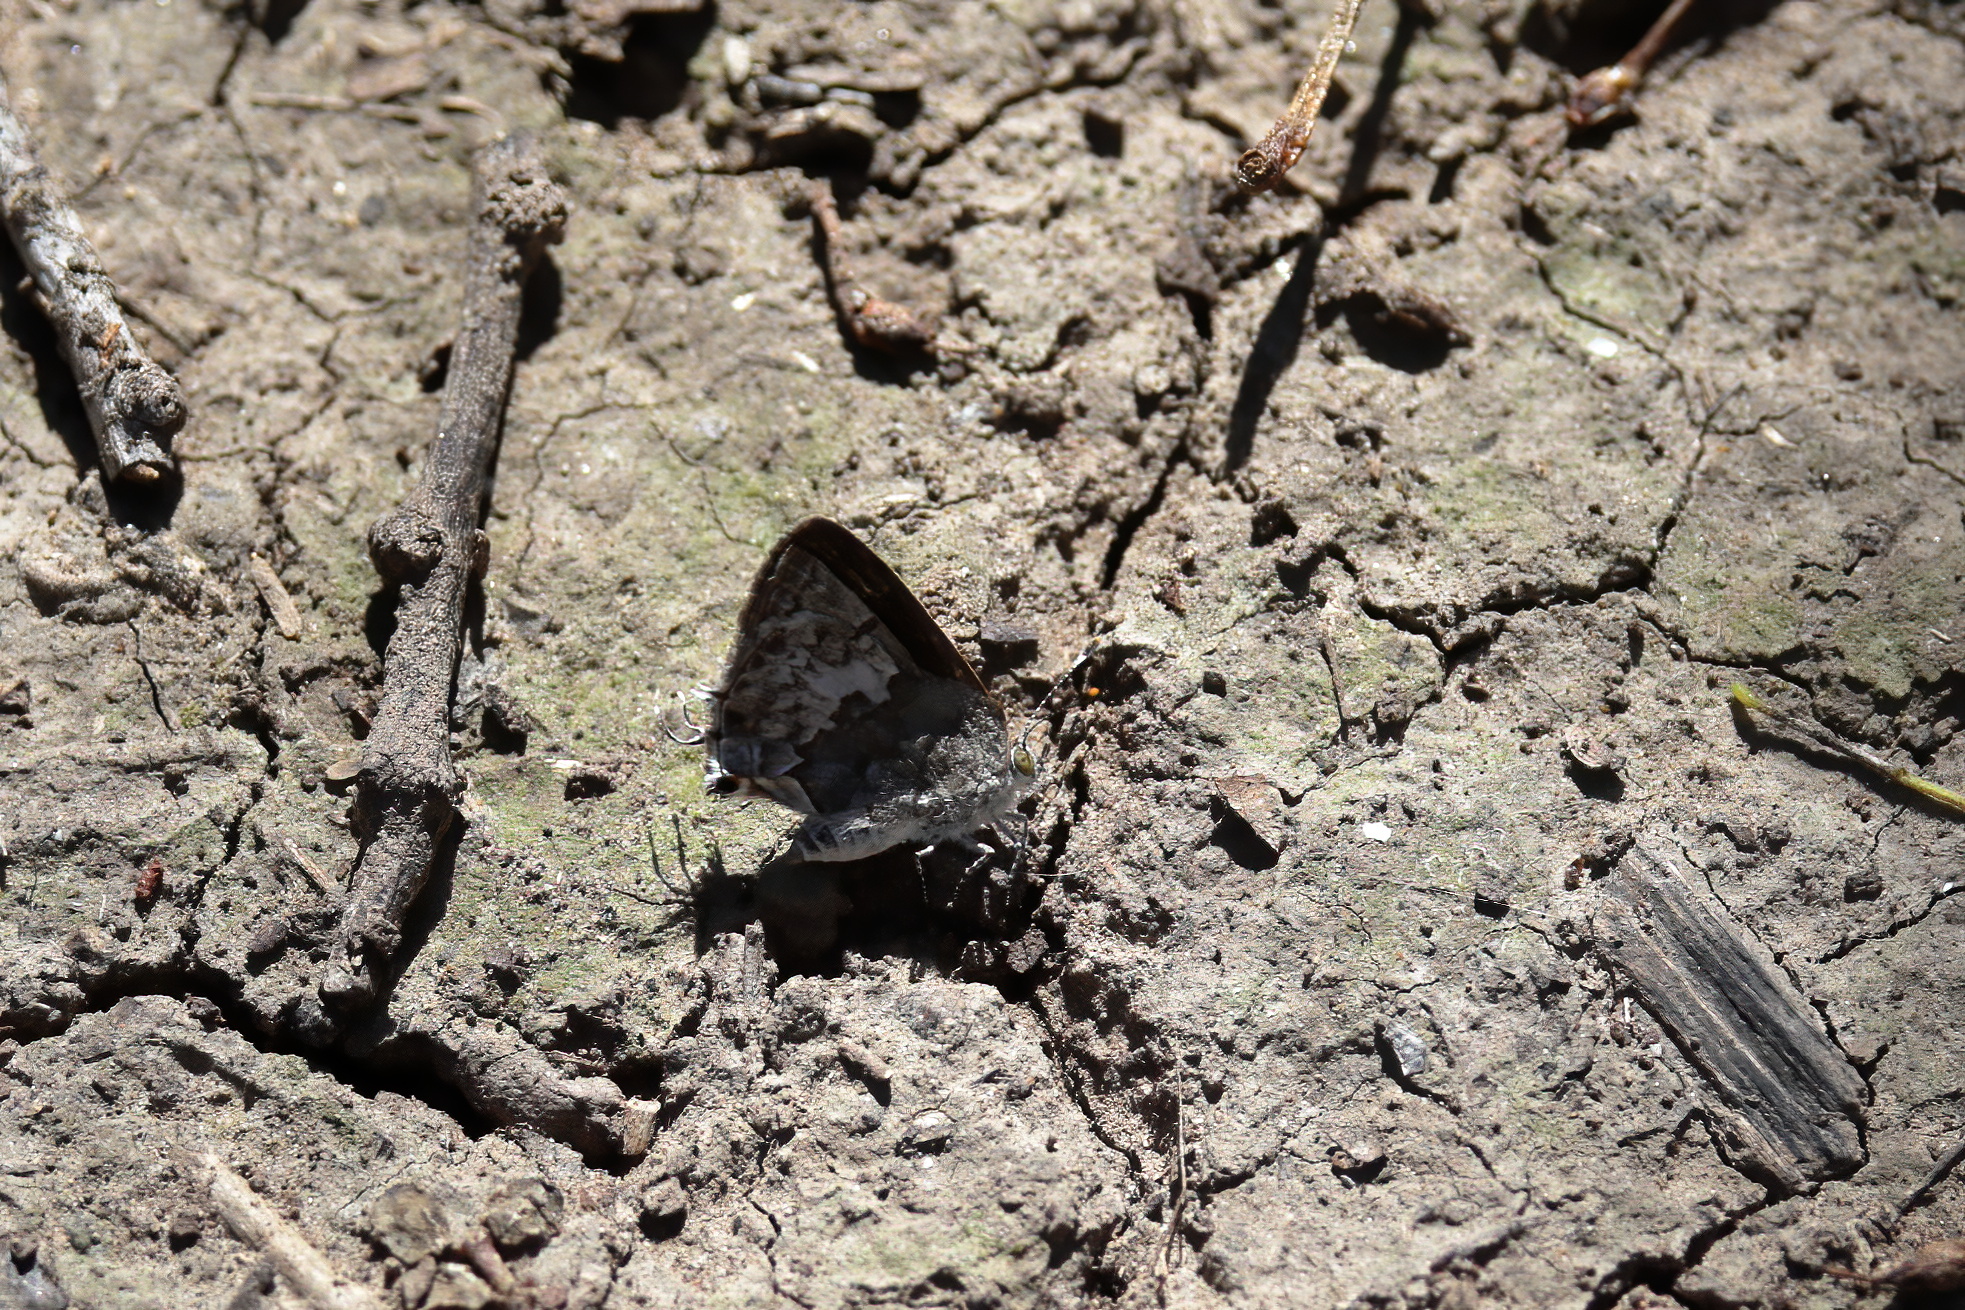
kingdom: Animalia
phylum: Arthropoda
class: Insecta
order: Lepidoptera
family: Lycaenidae
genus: Ministrymon
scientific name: Ministrymon clytie
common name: Clytie ministreak
